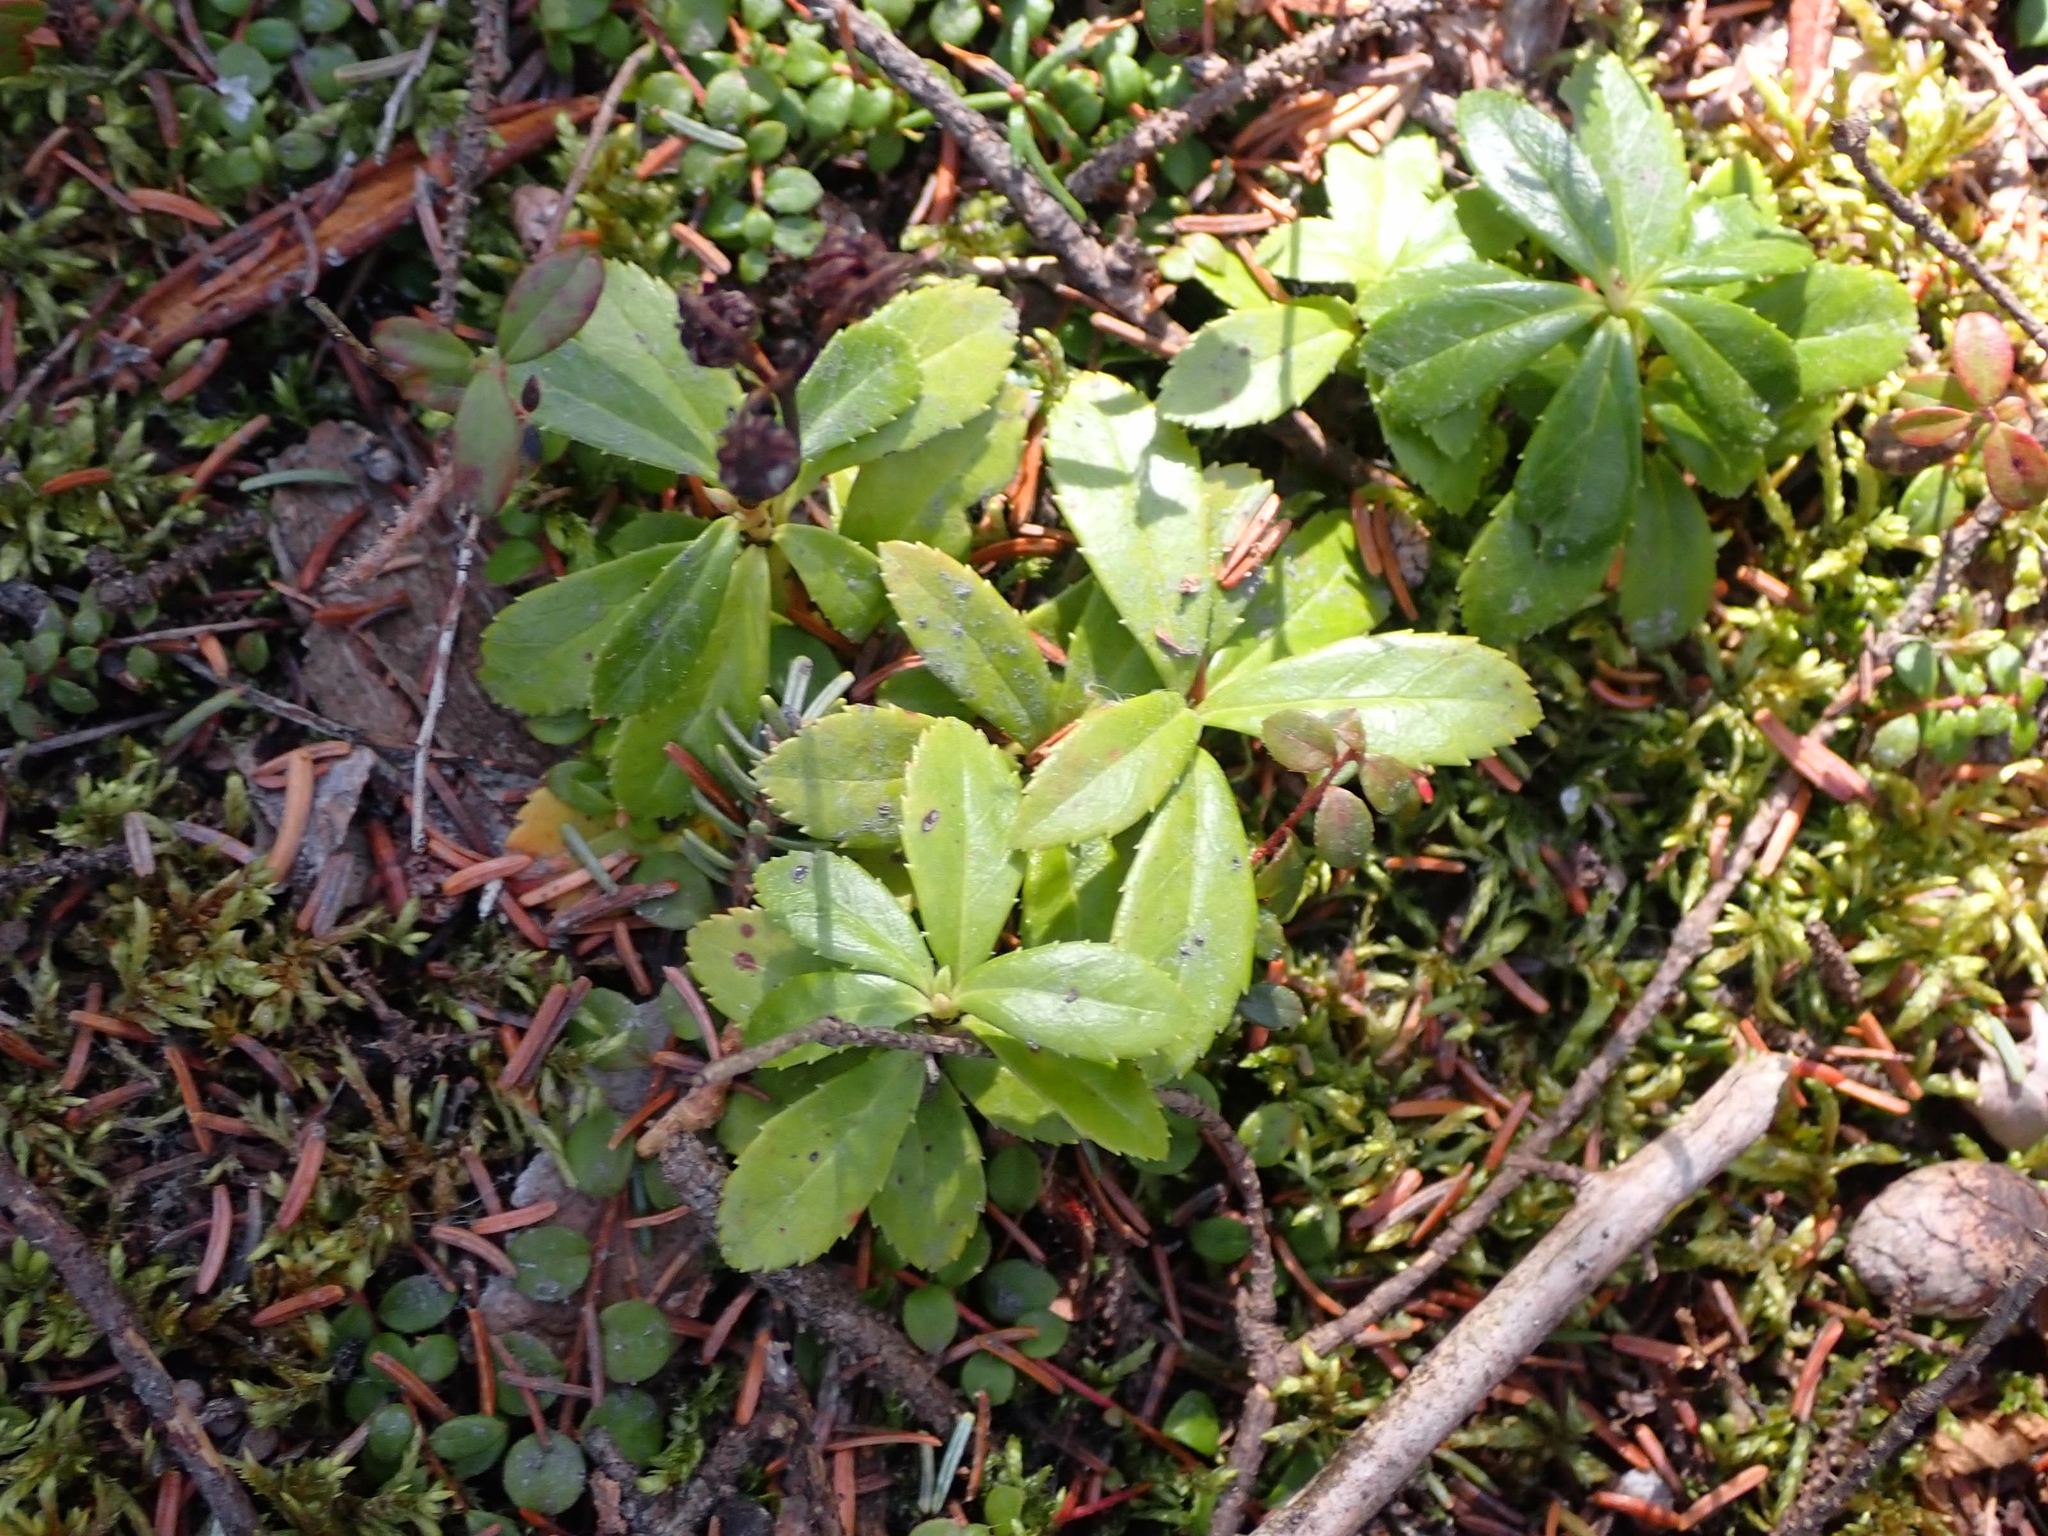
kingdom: Plantae
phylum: Tracheophyta
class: Magnoliopsida
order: Ericales
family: Ericaceae
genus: Chimaphila
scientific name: Chimaphila umbellata
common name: Pipsissewa
